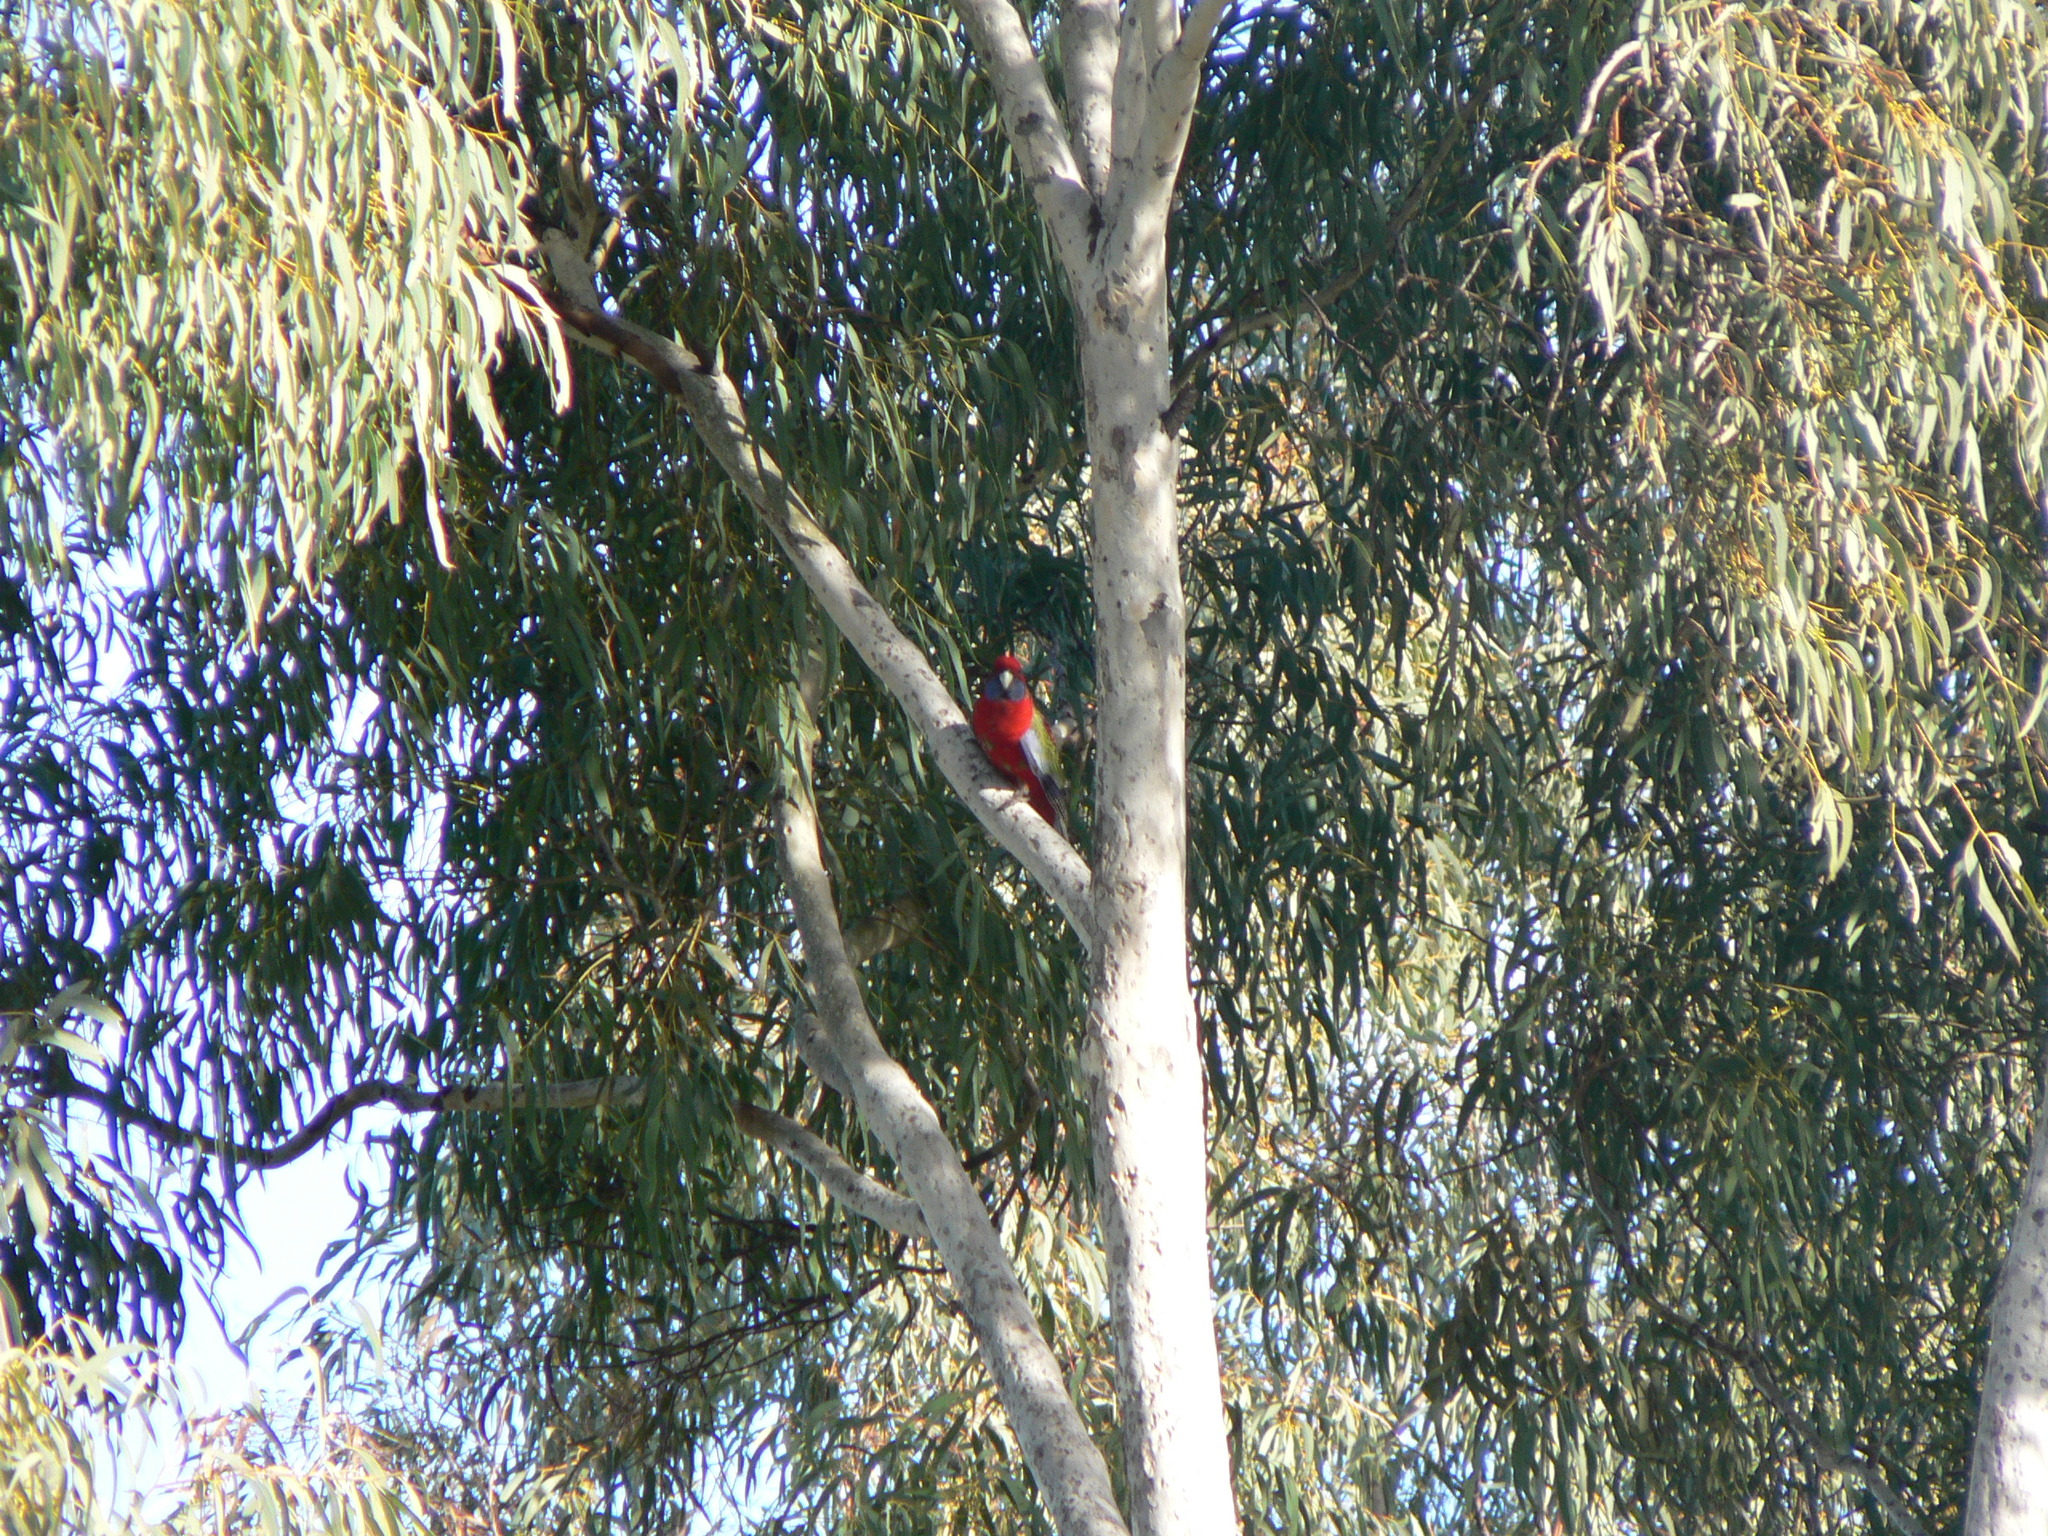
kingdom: Animalia
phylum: Chordata
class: Aves
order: Psittaciformes
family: Psittacidae
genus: Platycercus
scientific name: Platycercus elegans
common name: Crimson rosella
